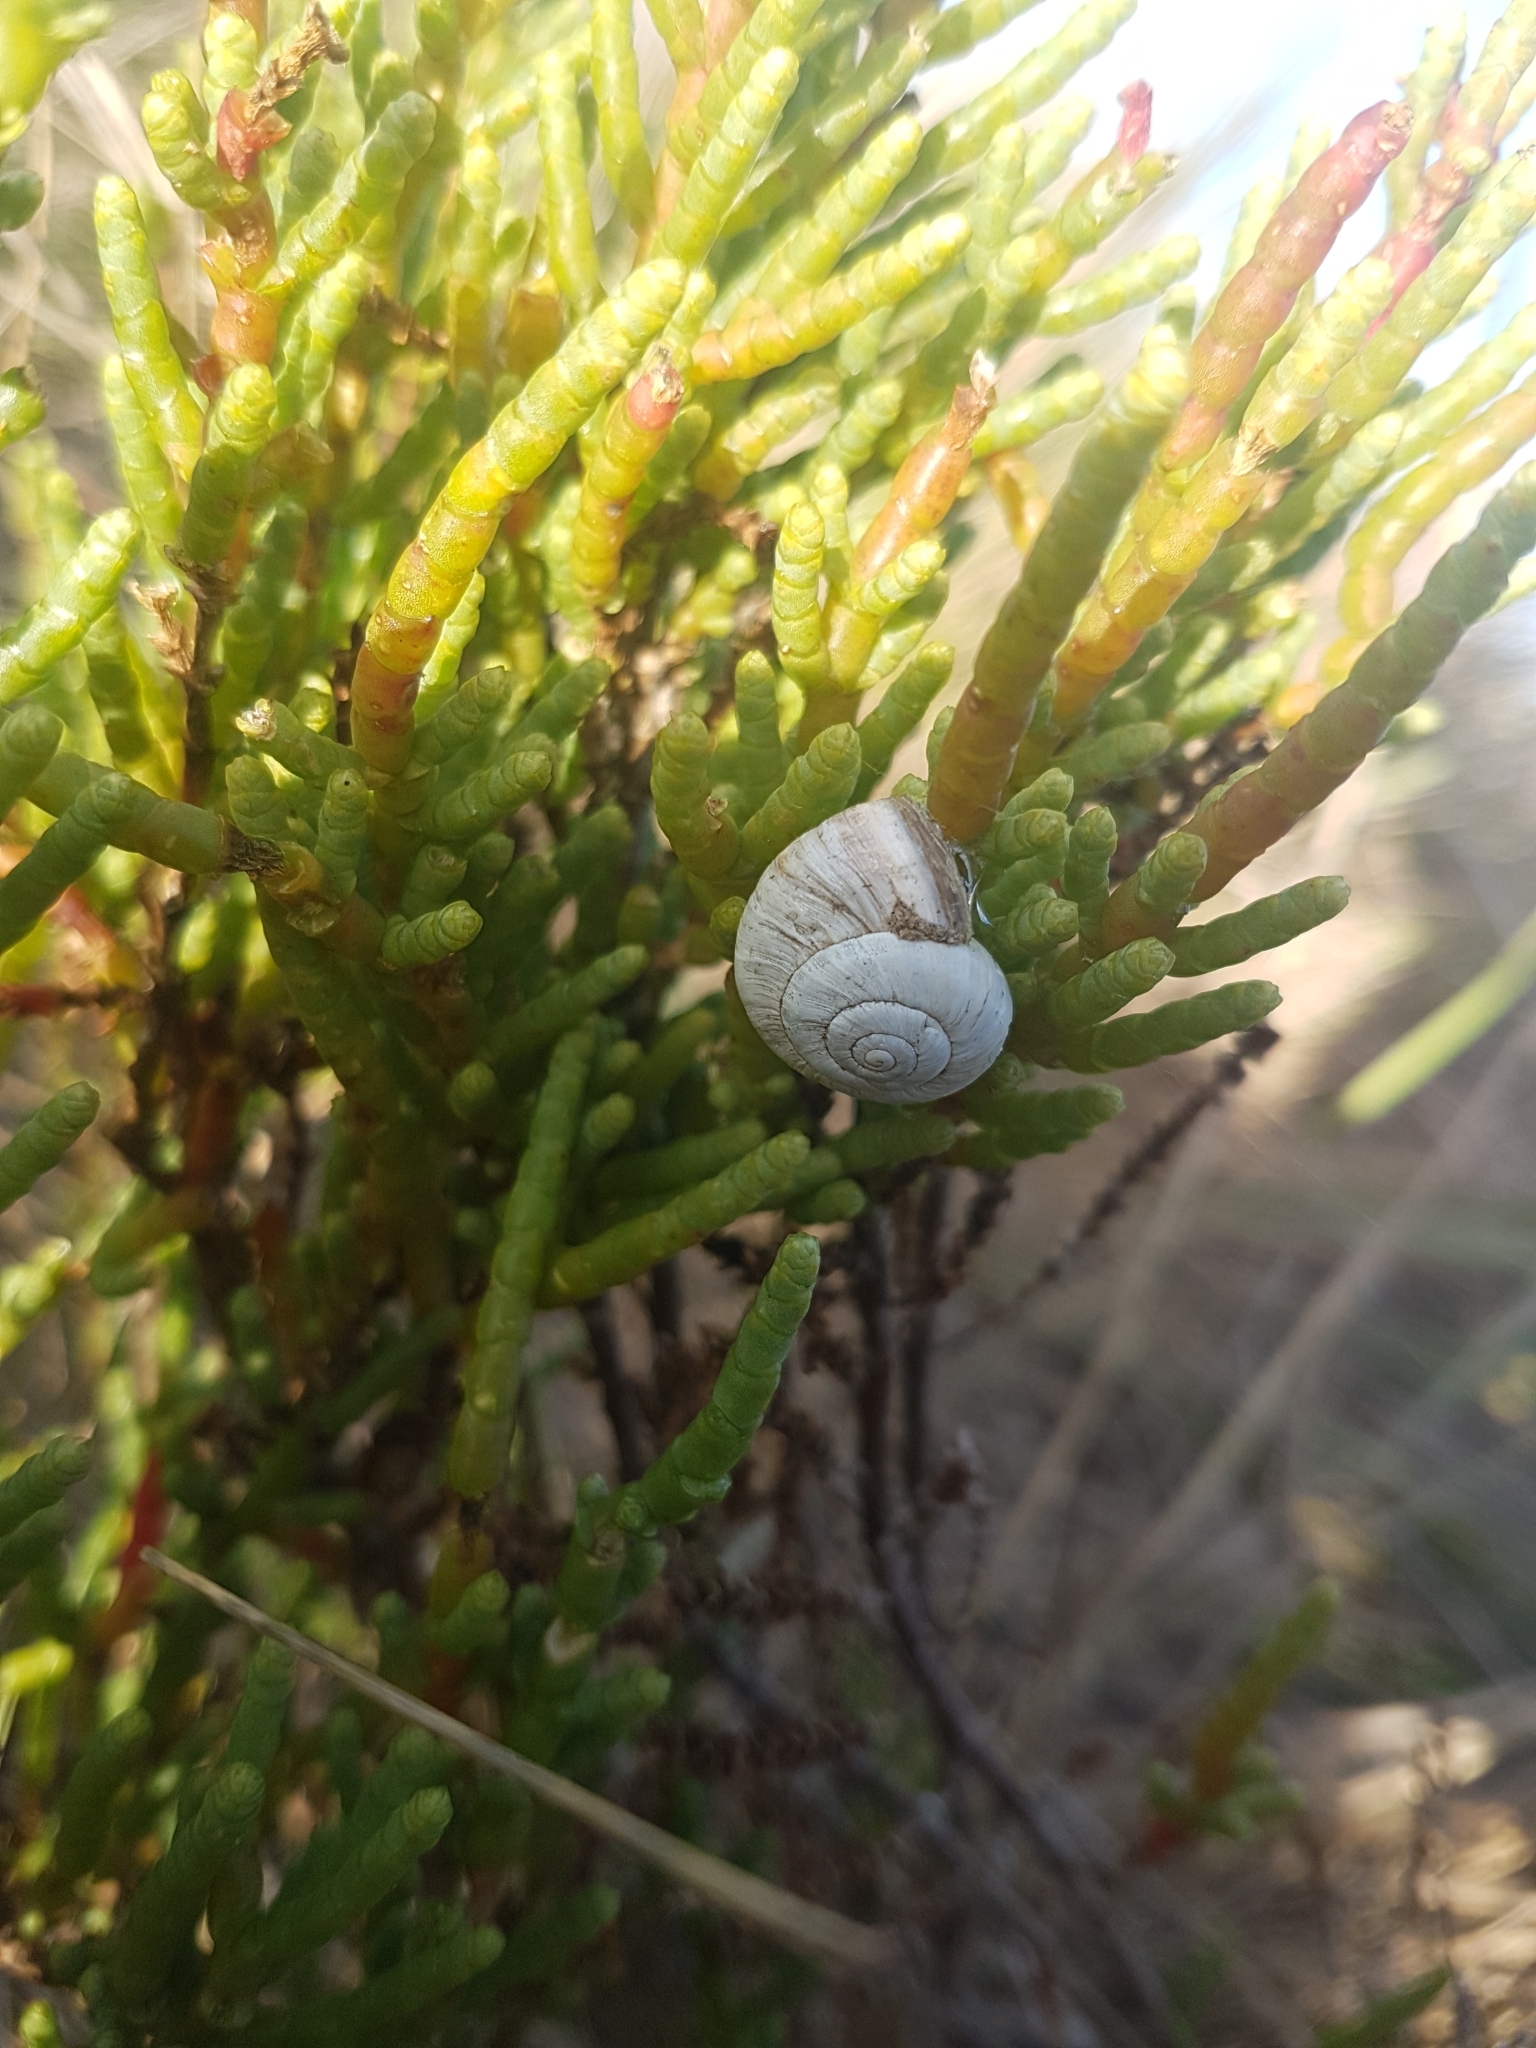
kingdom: Animalia
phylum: Mollusca
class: Gastropoda
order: Stylommatophora
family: Helicidae
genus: Theba
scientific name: Theba pisana
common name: White snail
